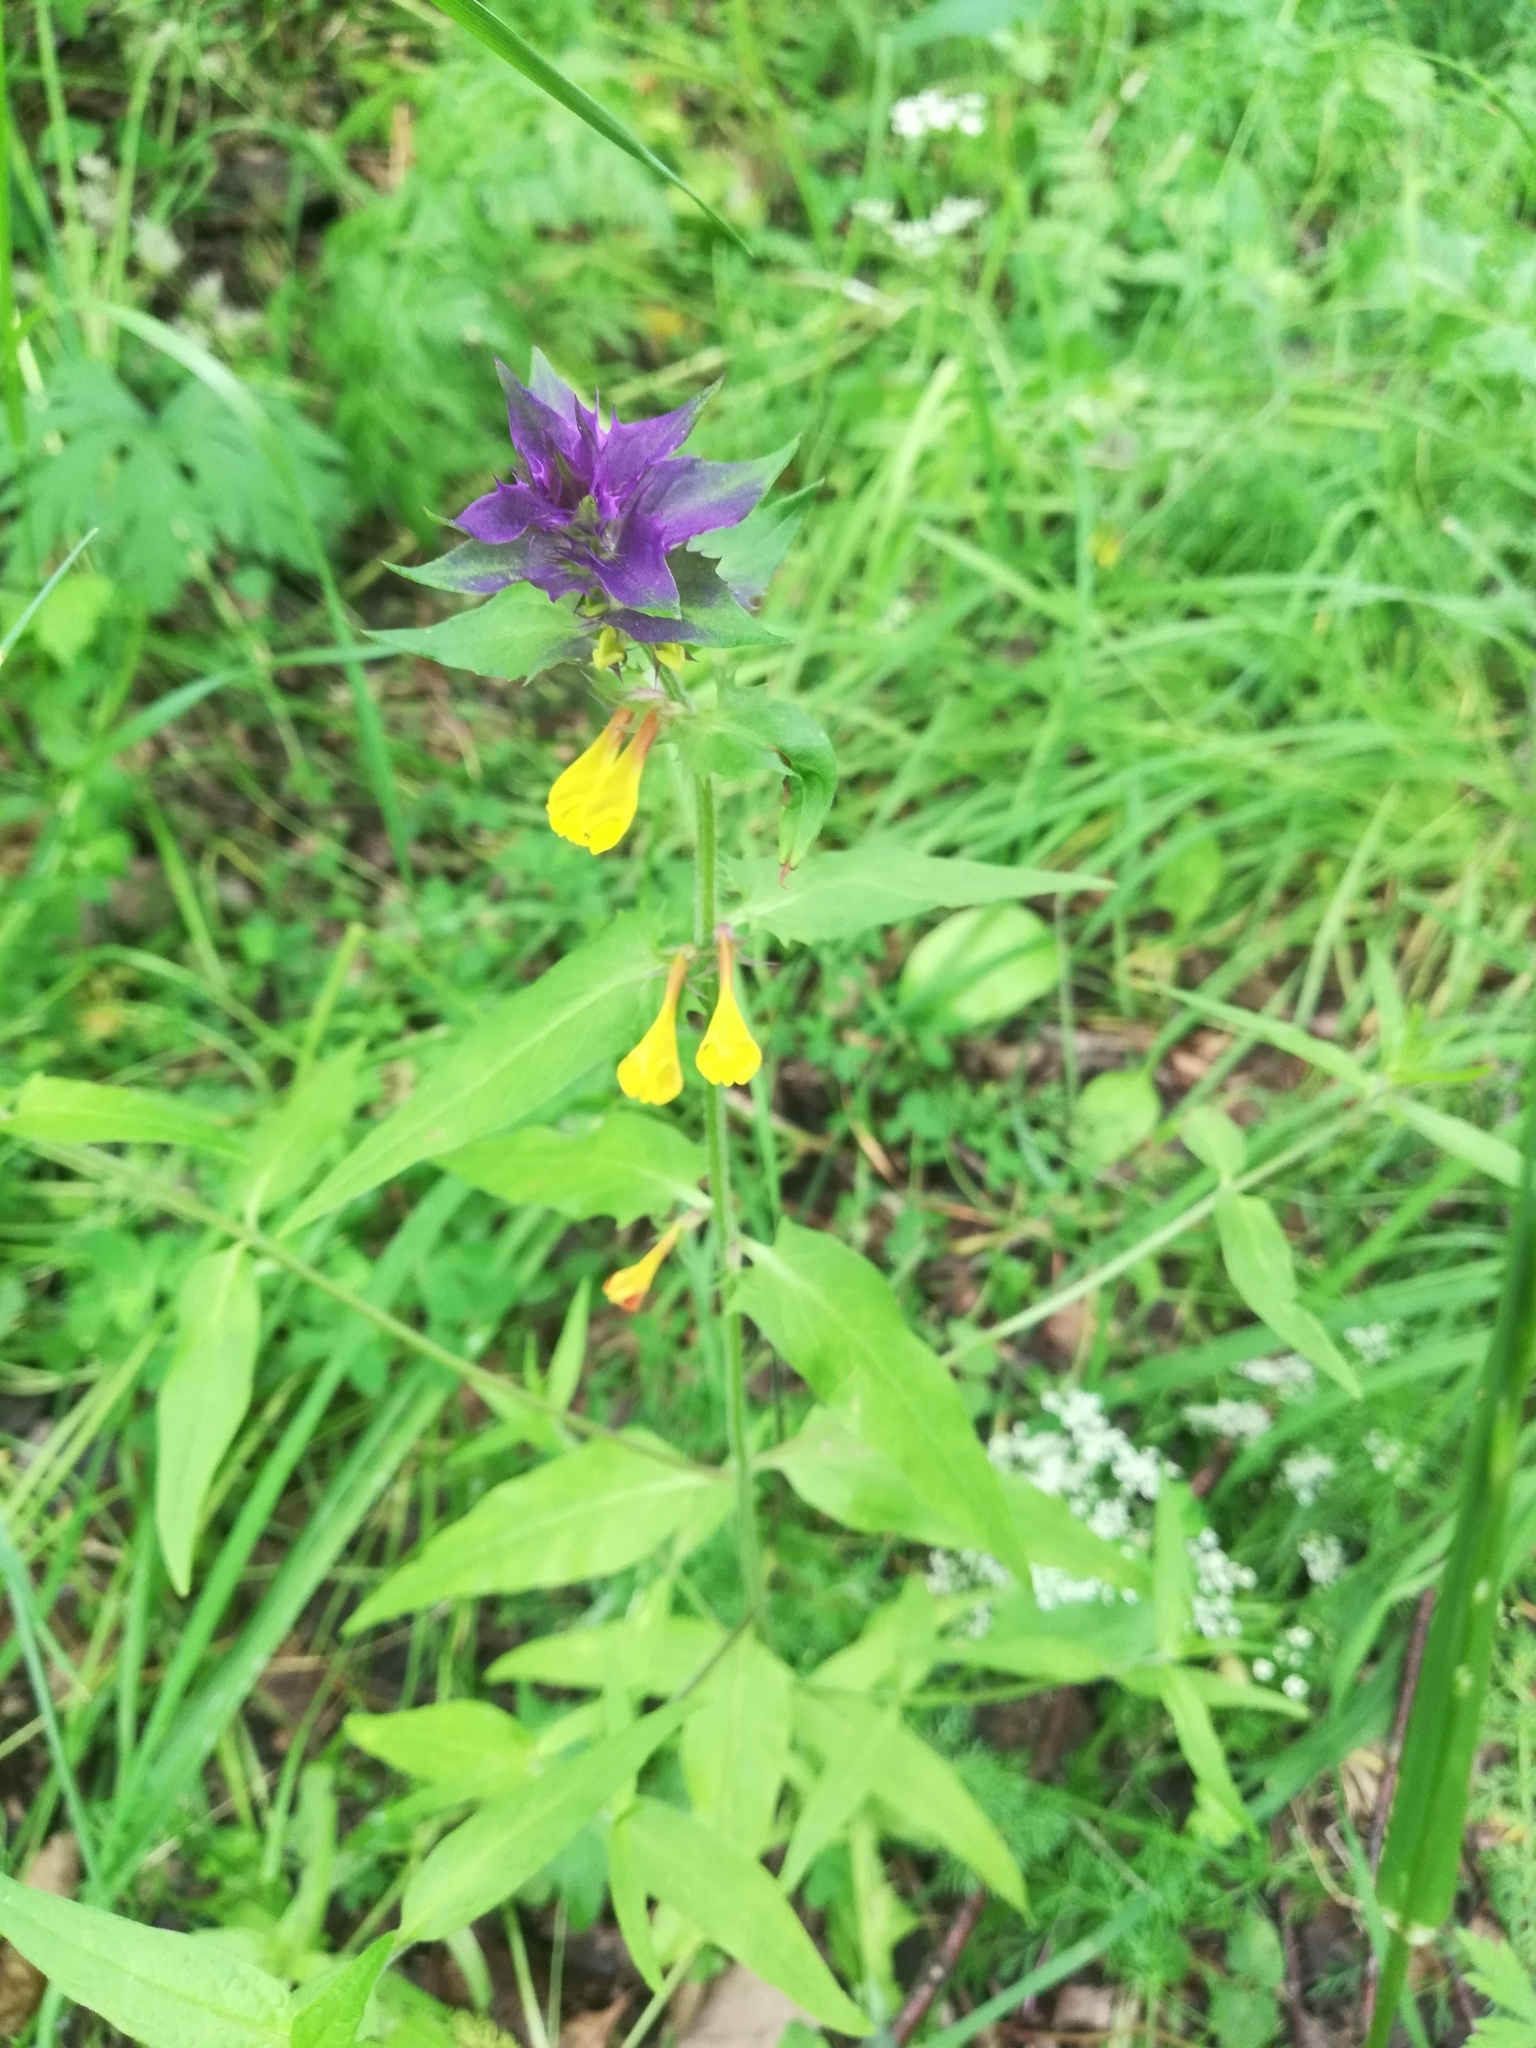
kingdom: Plantae
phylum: Tracheophyta
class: Magnoliopsida
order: Lamiales
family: Orobanchaceae
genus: Melampyrum
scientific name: Melampyrum nemorosum
